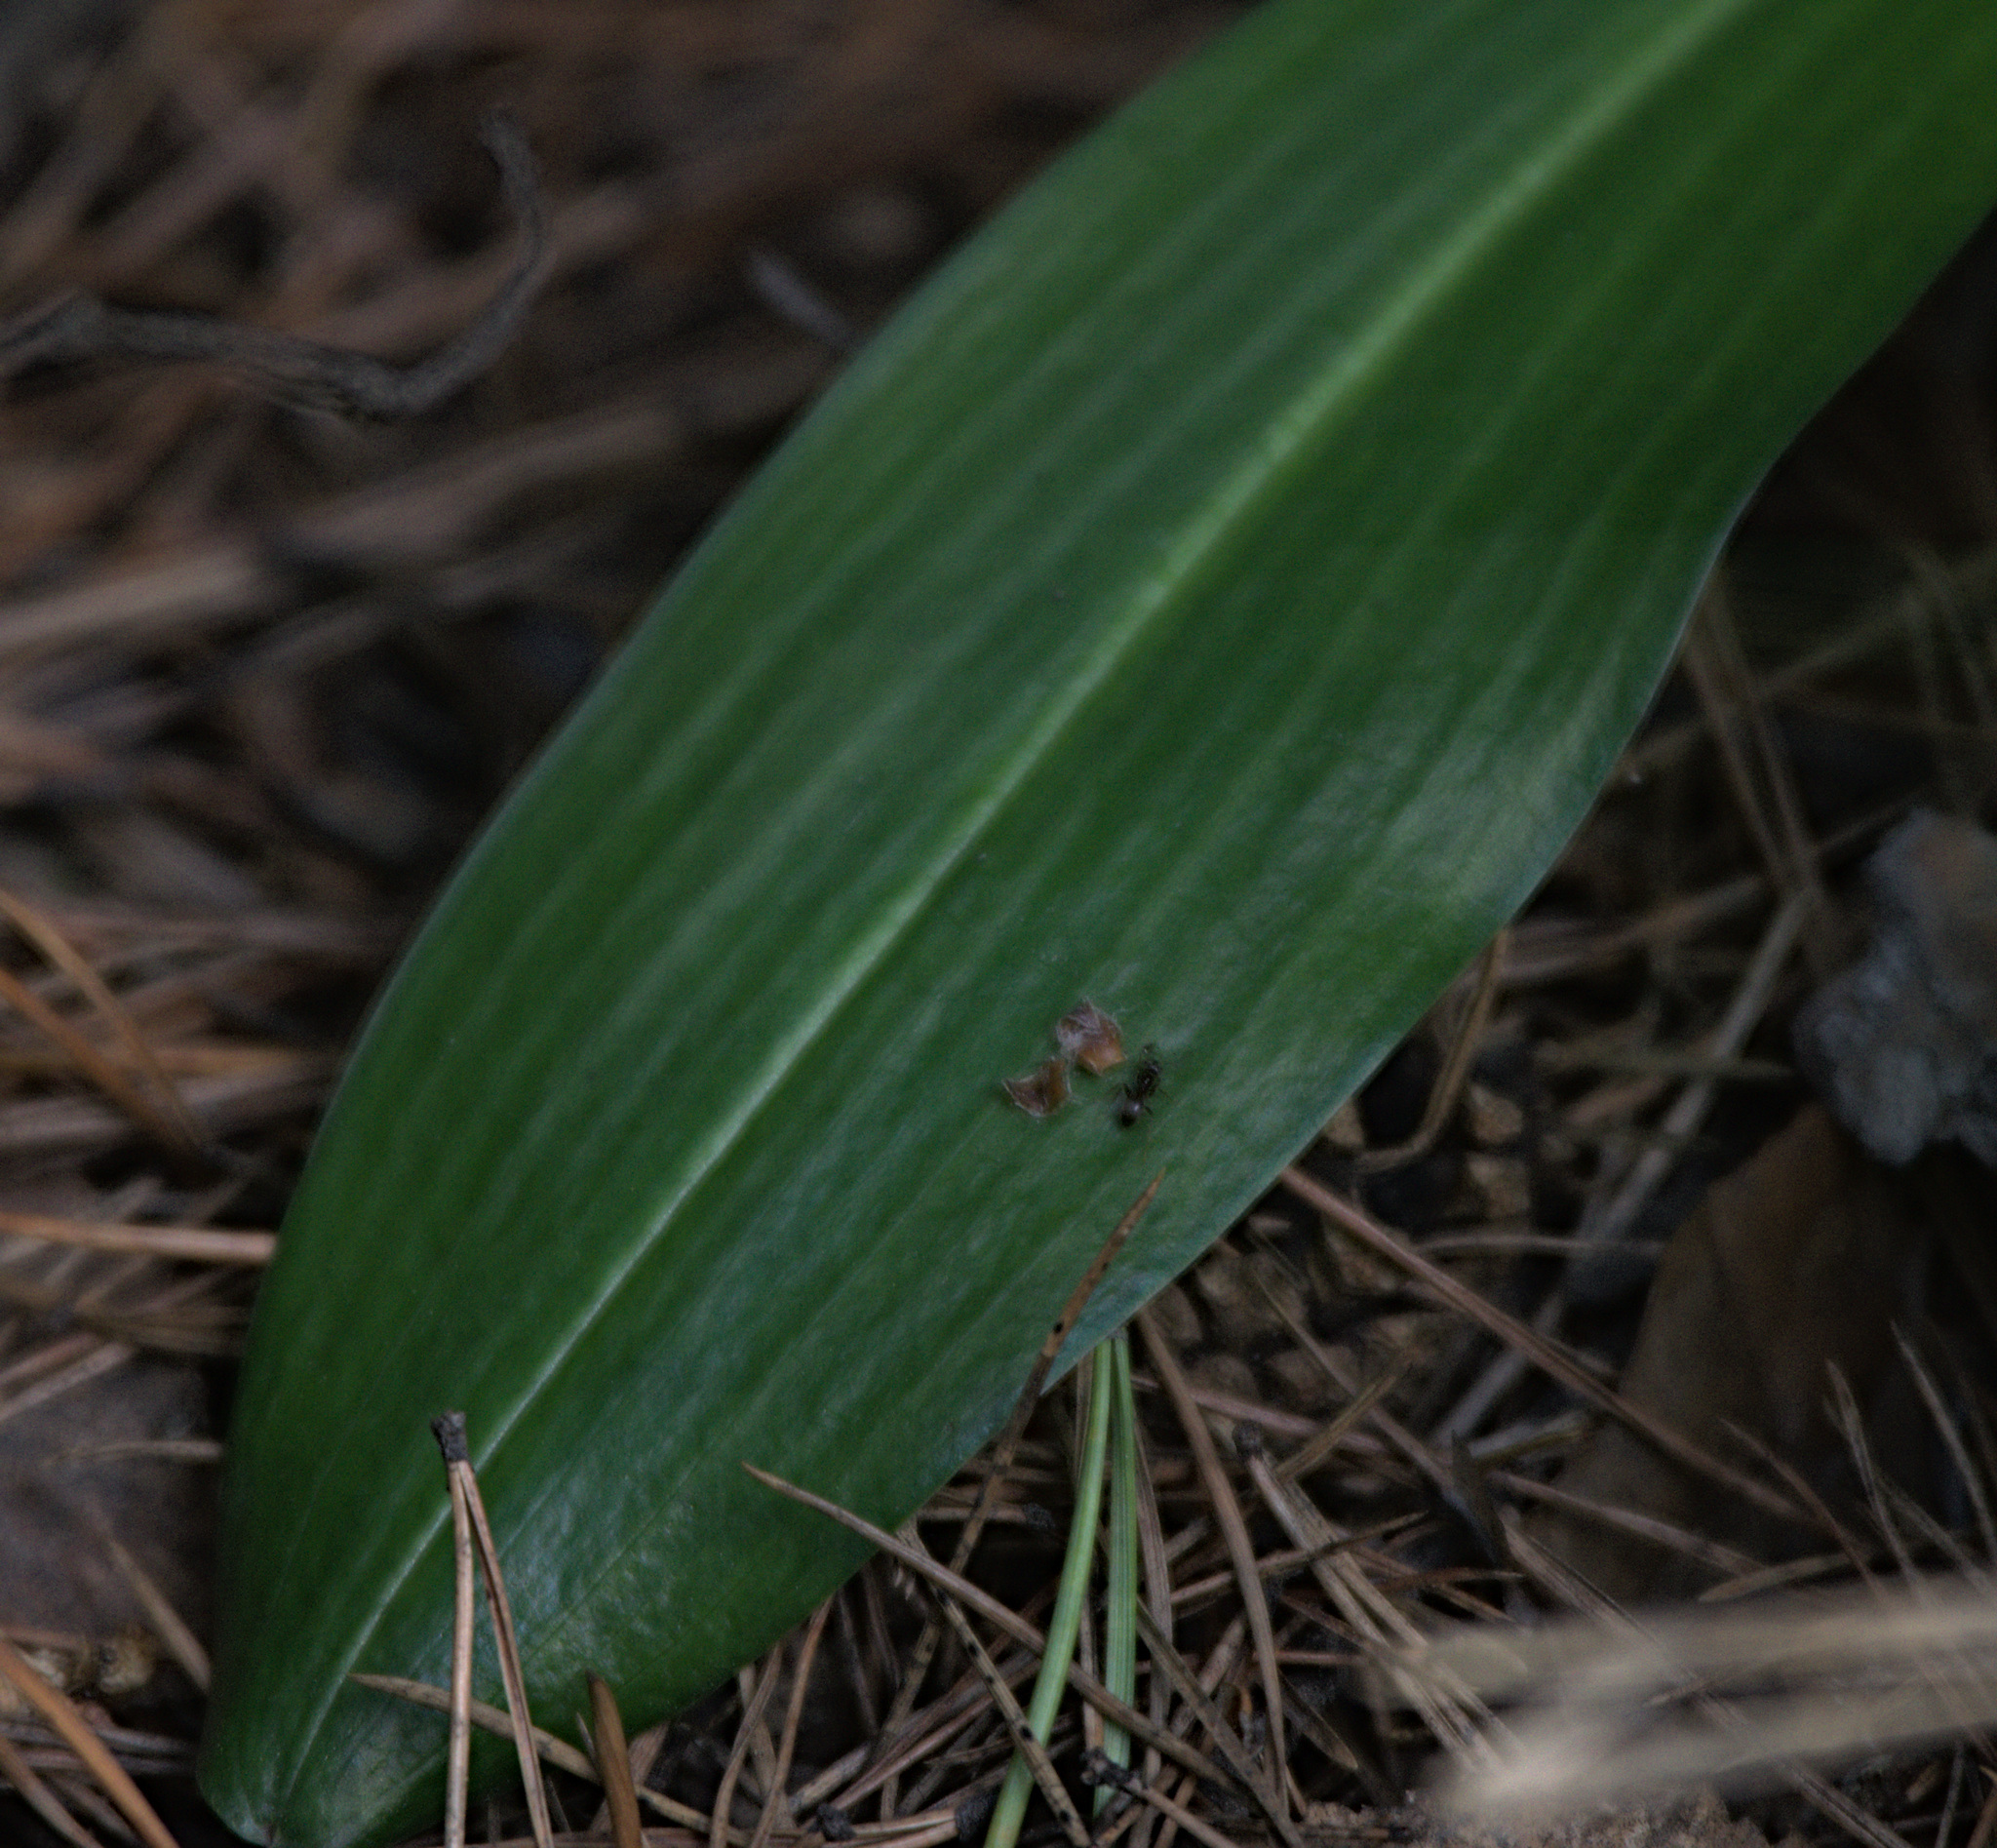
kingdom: Plantae
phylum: Tracheophyta
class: Liliopsida
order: Asparagales
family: Orchidaceae
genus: Platanthera
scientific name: Platanthera bifolia
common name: Lesser butterfly-orchid
